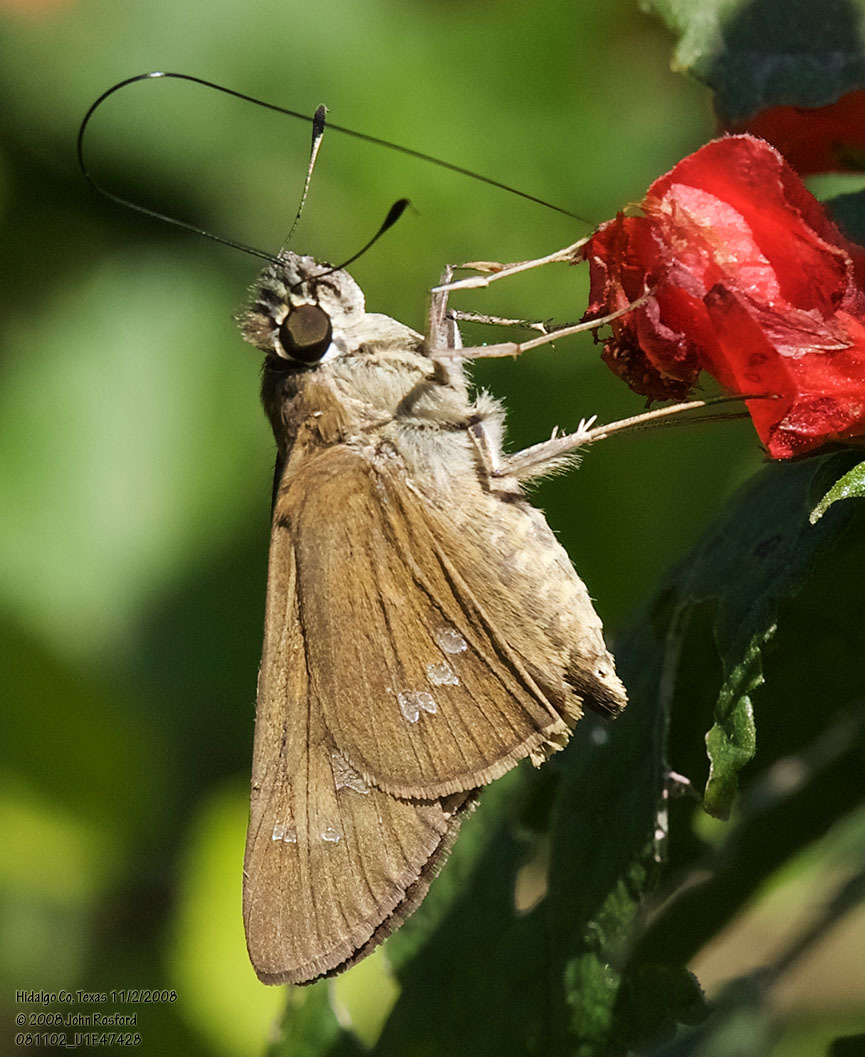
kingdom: Animalia
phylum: Arthropoda
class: Insecta
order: Lepidoptera
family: Hesperiidae
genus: Calpodes
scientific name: Calpodes ethlius
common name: Brazilian skipper
